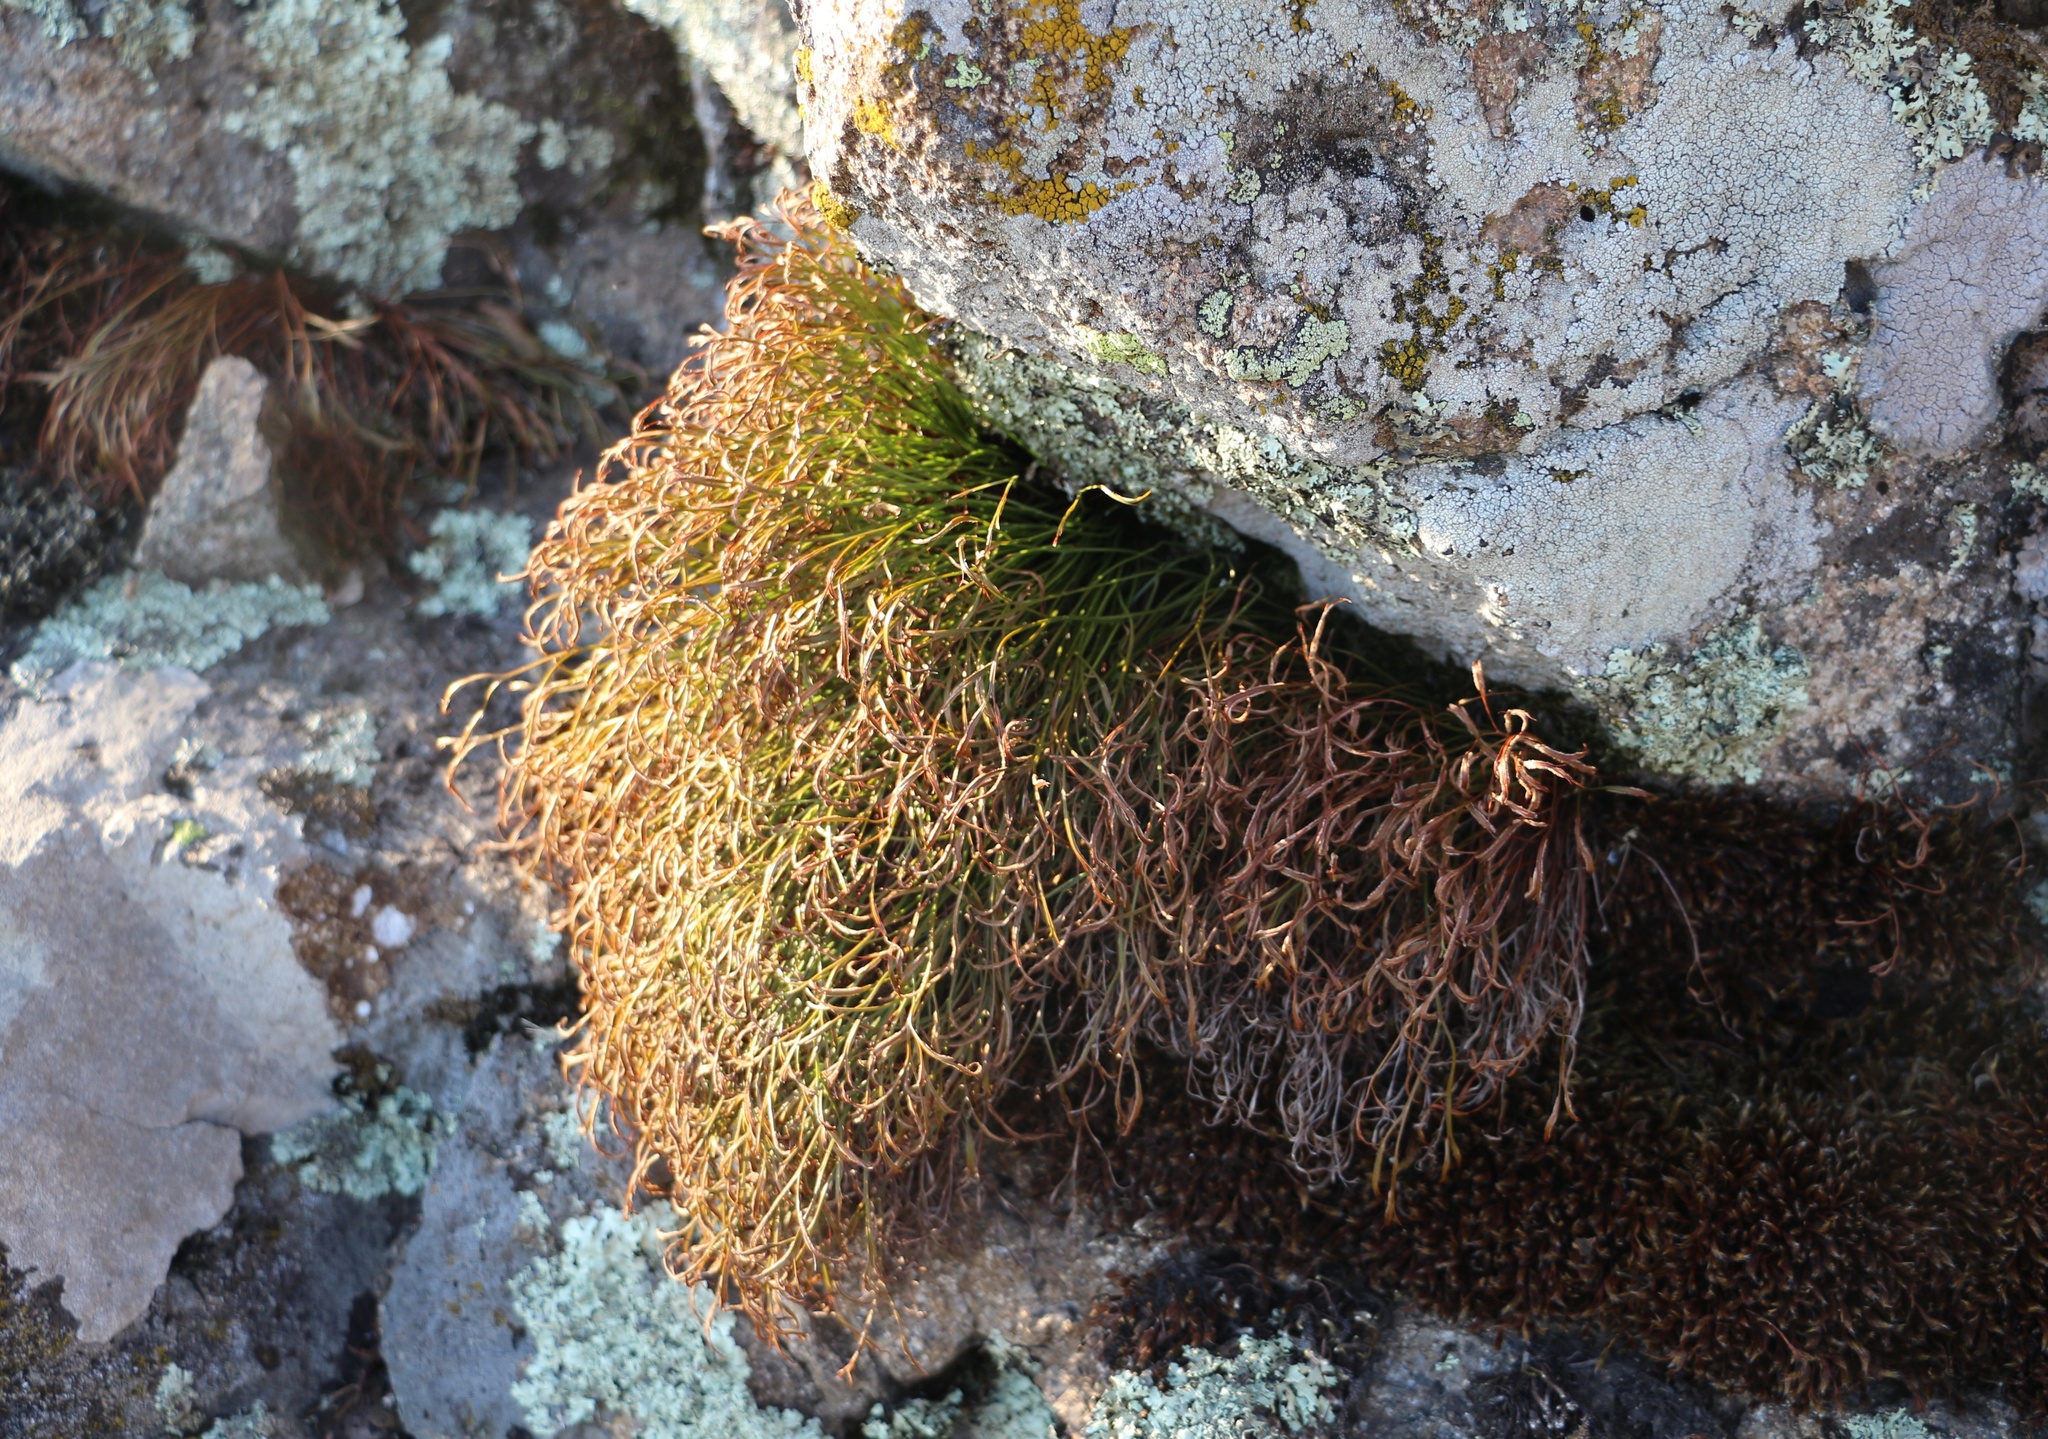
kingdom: Plantae
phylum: Tracheophyta
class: Polypodiopsida
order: Polypodiales
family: Aspleniaceae
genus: Asplenium
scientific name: Asplenium septentrionale
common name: Forked spleenwort
